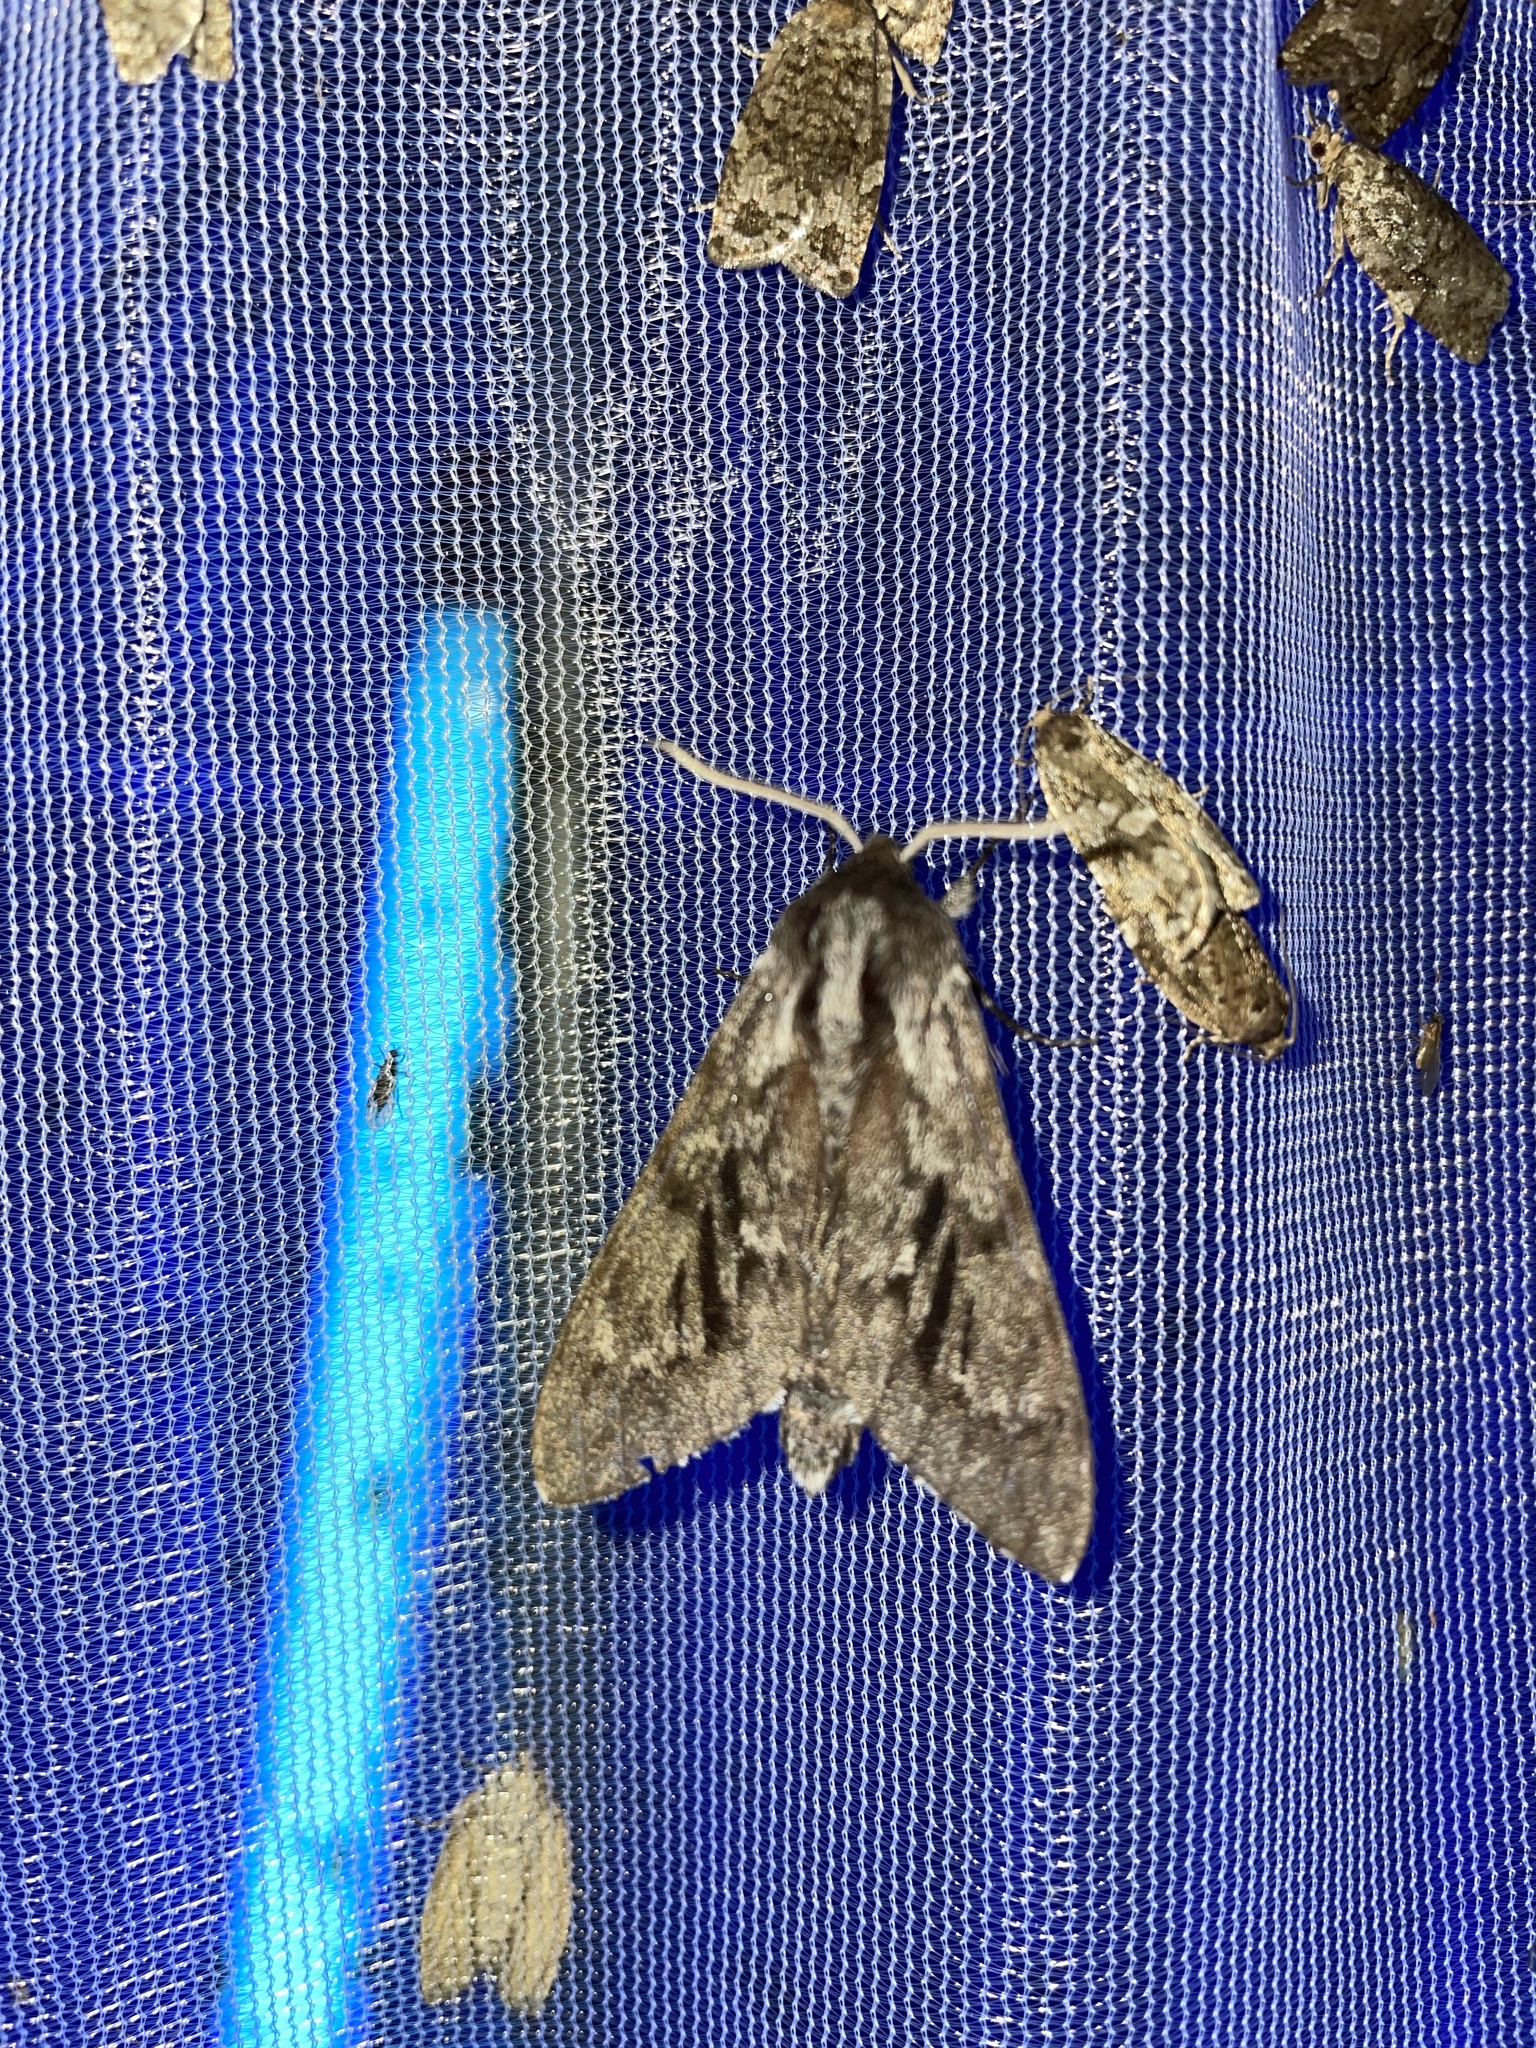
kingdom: Animalia
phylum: Arthropoda
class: Insecta
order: Lepidoptera
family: Sphingidae
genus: Lapara
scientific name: Lapara bombycoides
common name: Northern pine sphinx
